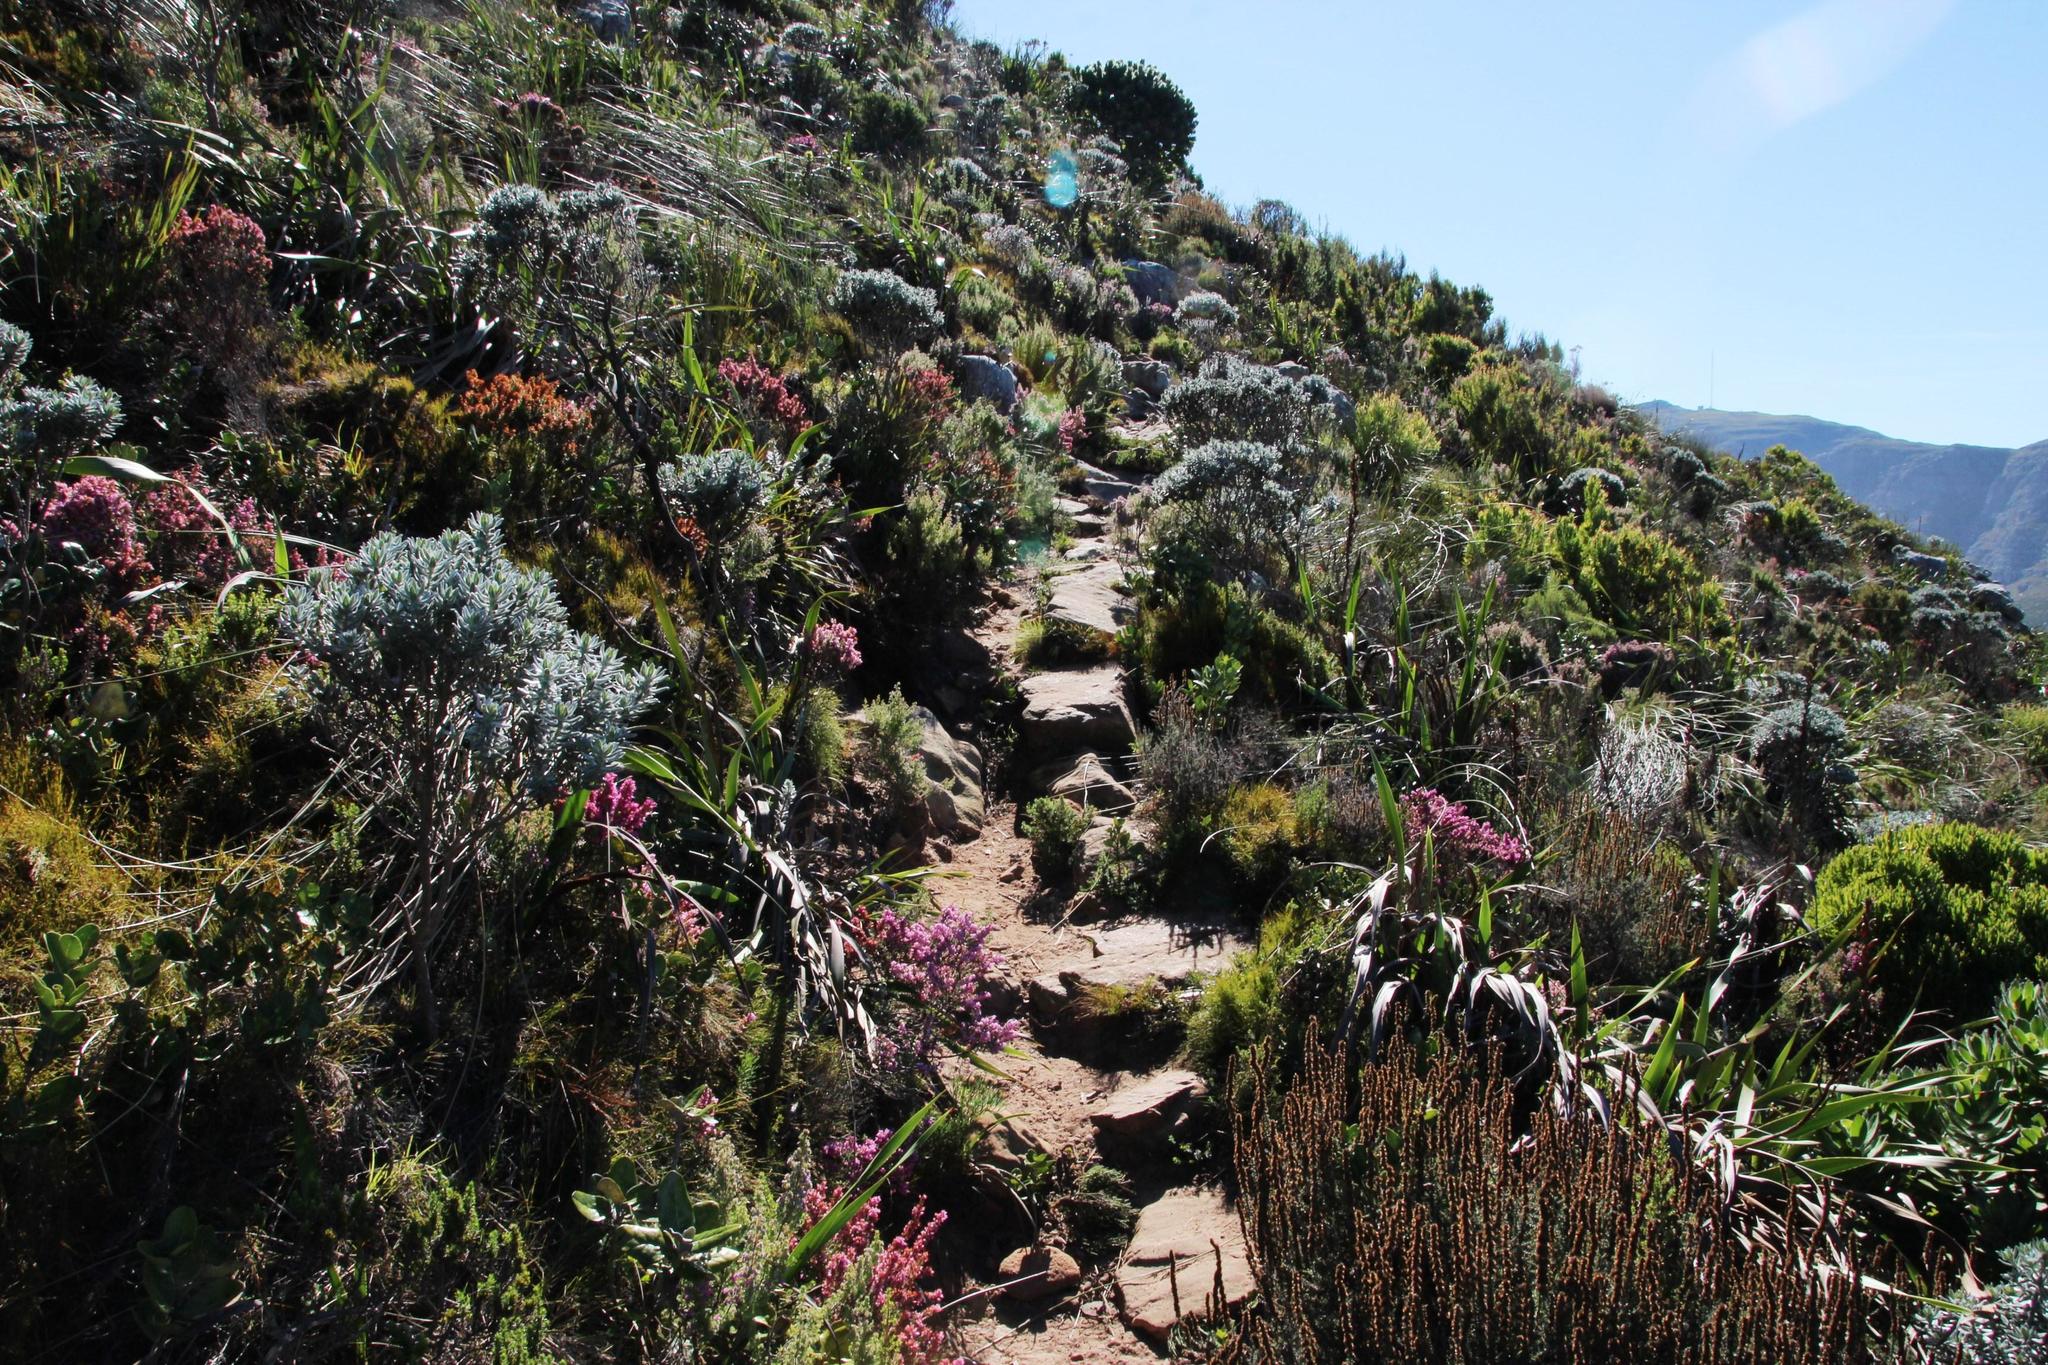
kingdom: Plantae
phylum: Tracheophyta
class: Magnoliopsida
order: Fabales
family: Fabaceae
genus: Xiphotheca
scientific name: Xiphotheca fruticosa
